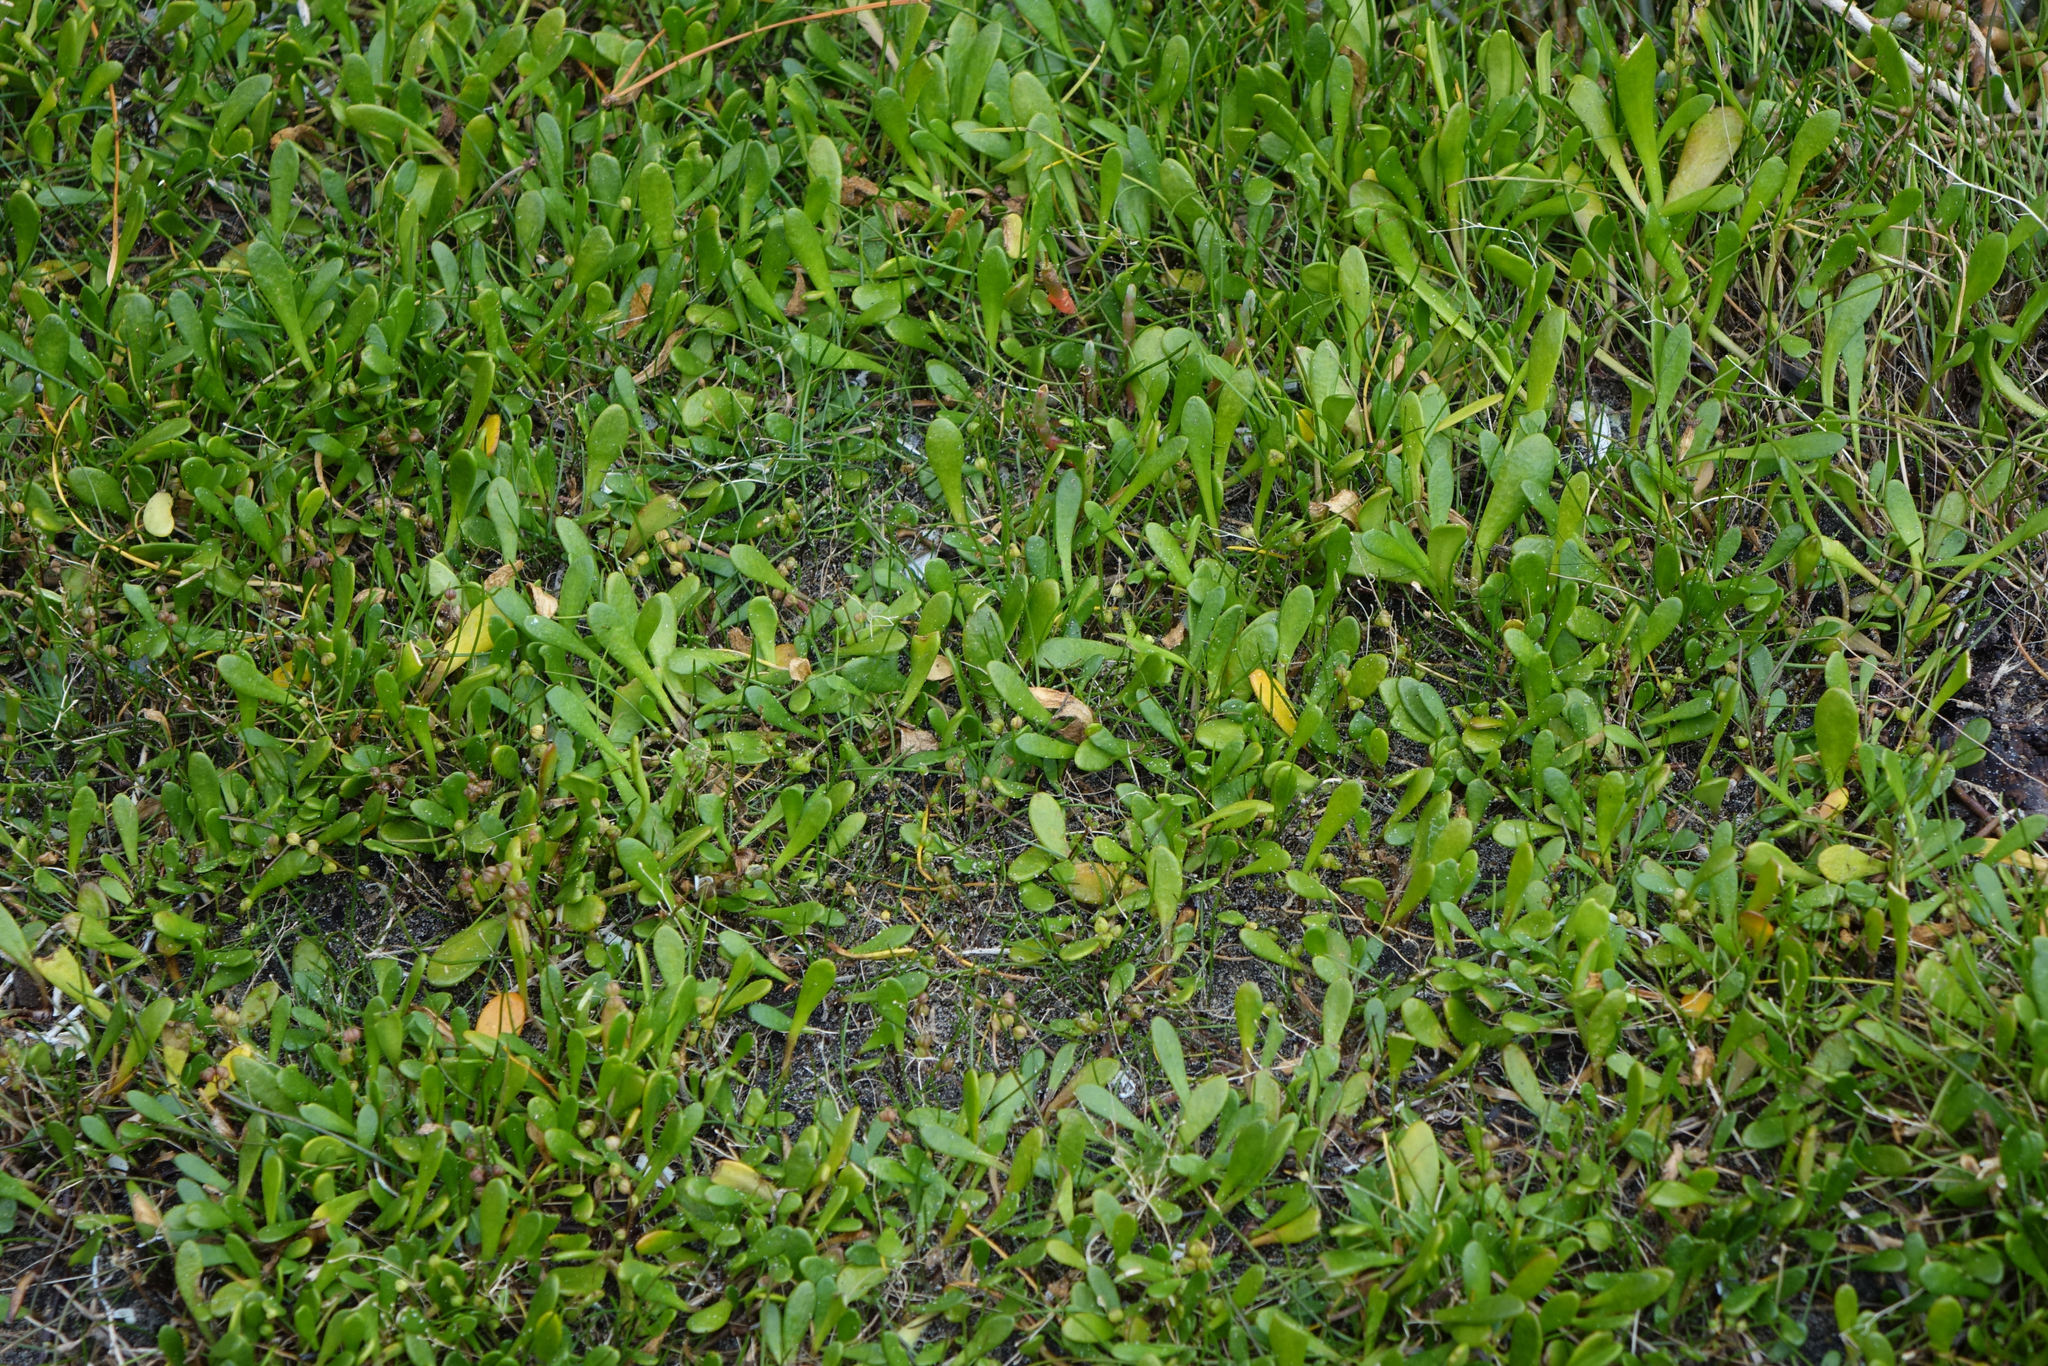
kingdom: Plantae
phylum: Tracheophyta
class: Magnoliopsida
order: Asterales
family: Goodeniaceae
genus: Goodenia
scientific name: Goodenia radicans
